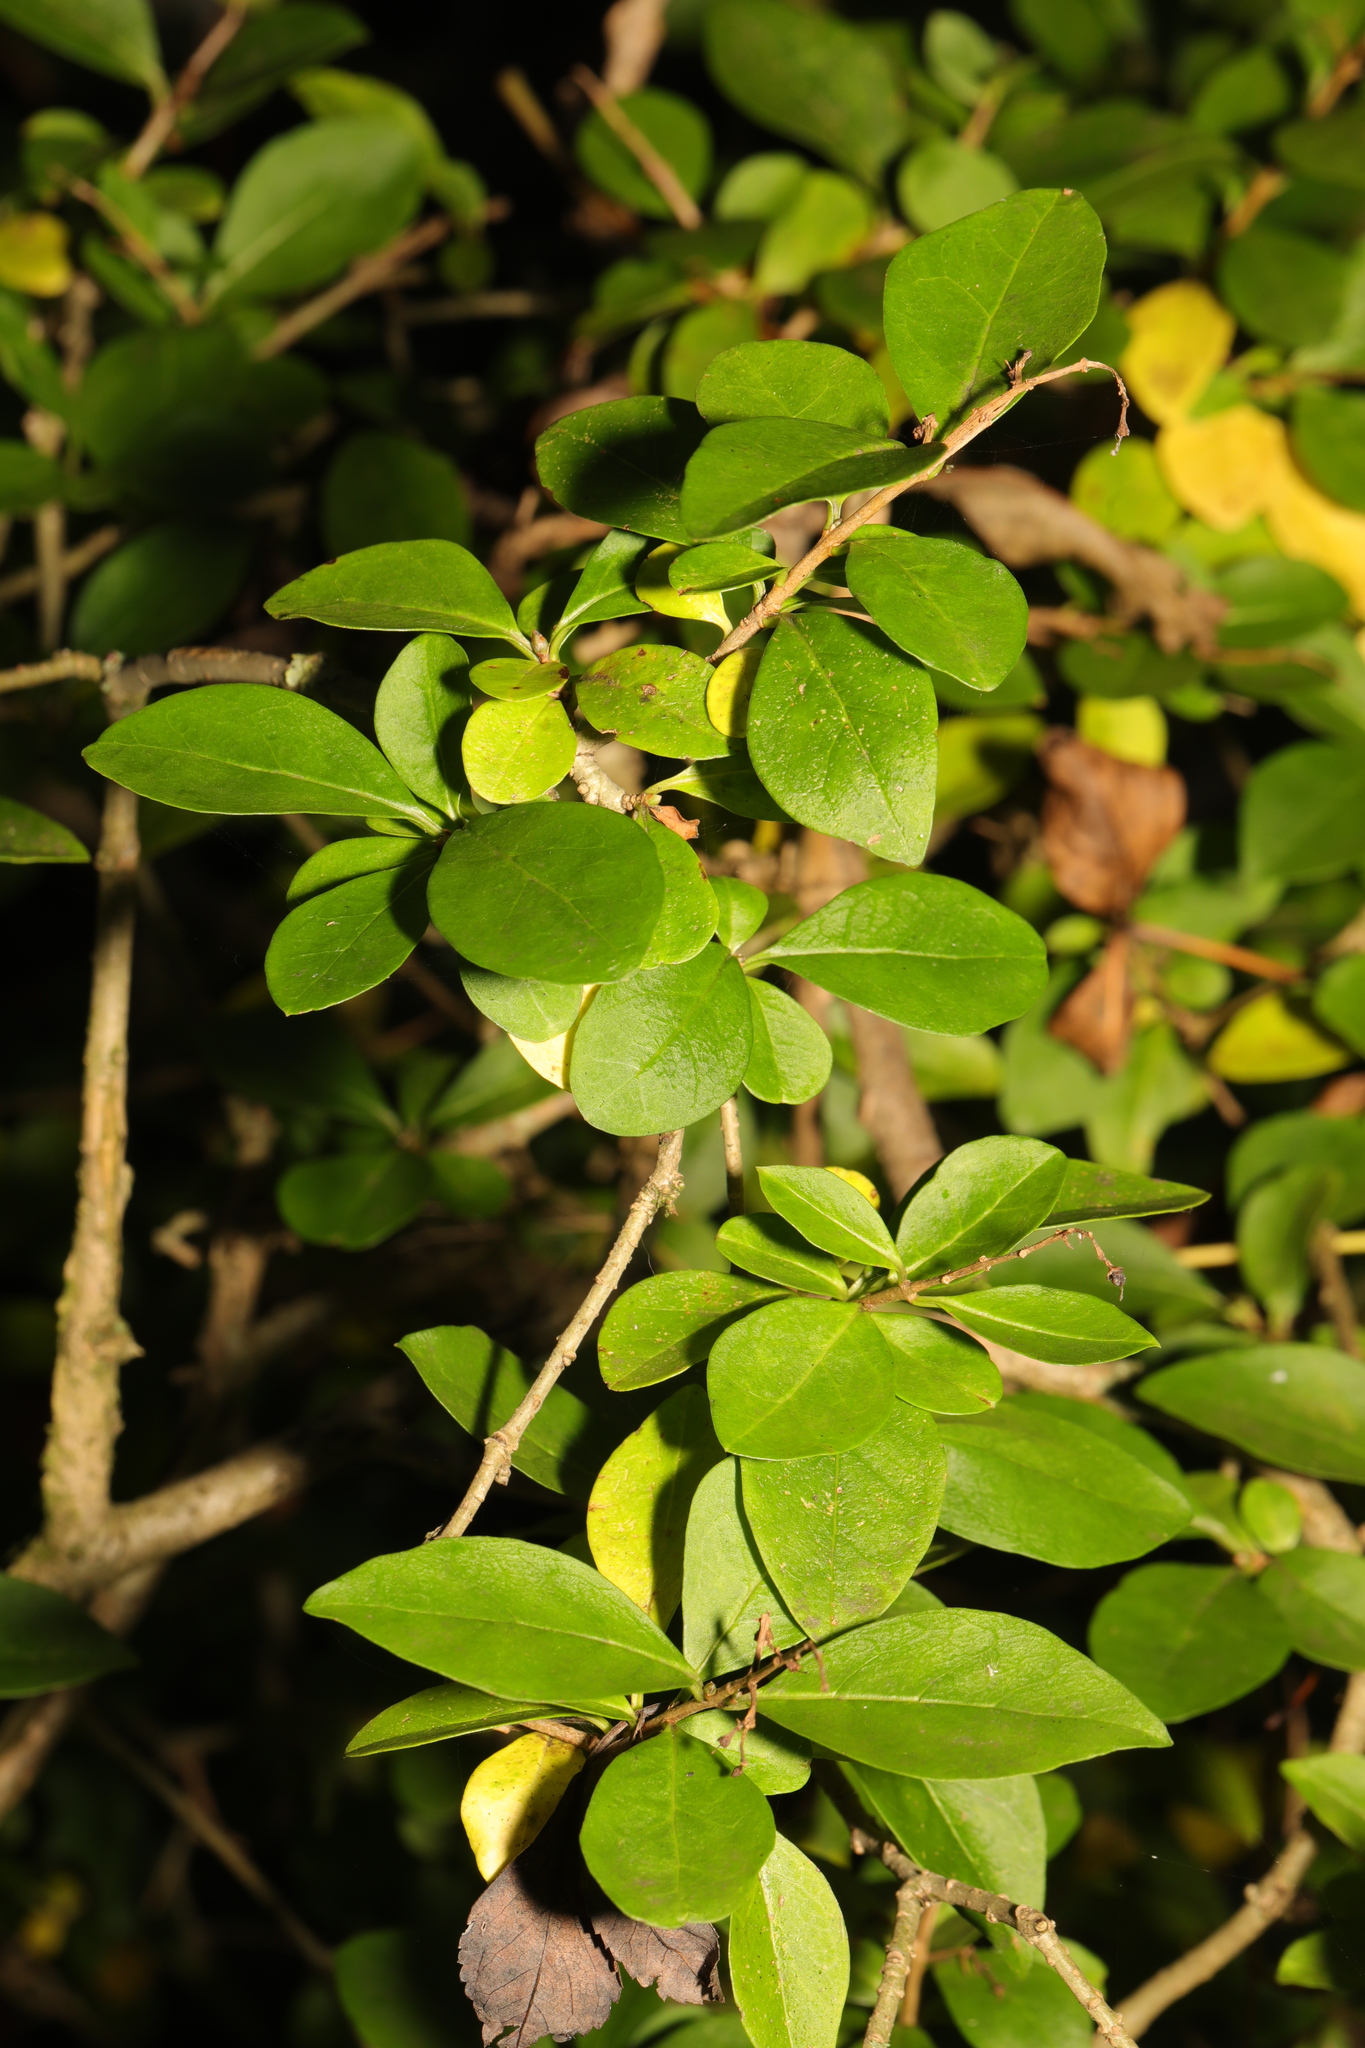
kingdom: Plantae
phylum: Tracheophyta
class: Magnoliopsida
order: Lamiales
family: Oleaceae
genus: Ligustrum
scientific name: Ligustrum ovalifolium
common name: California privet
